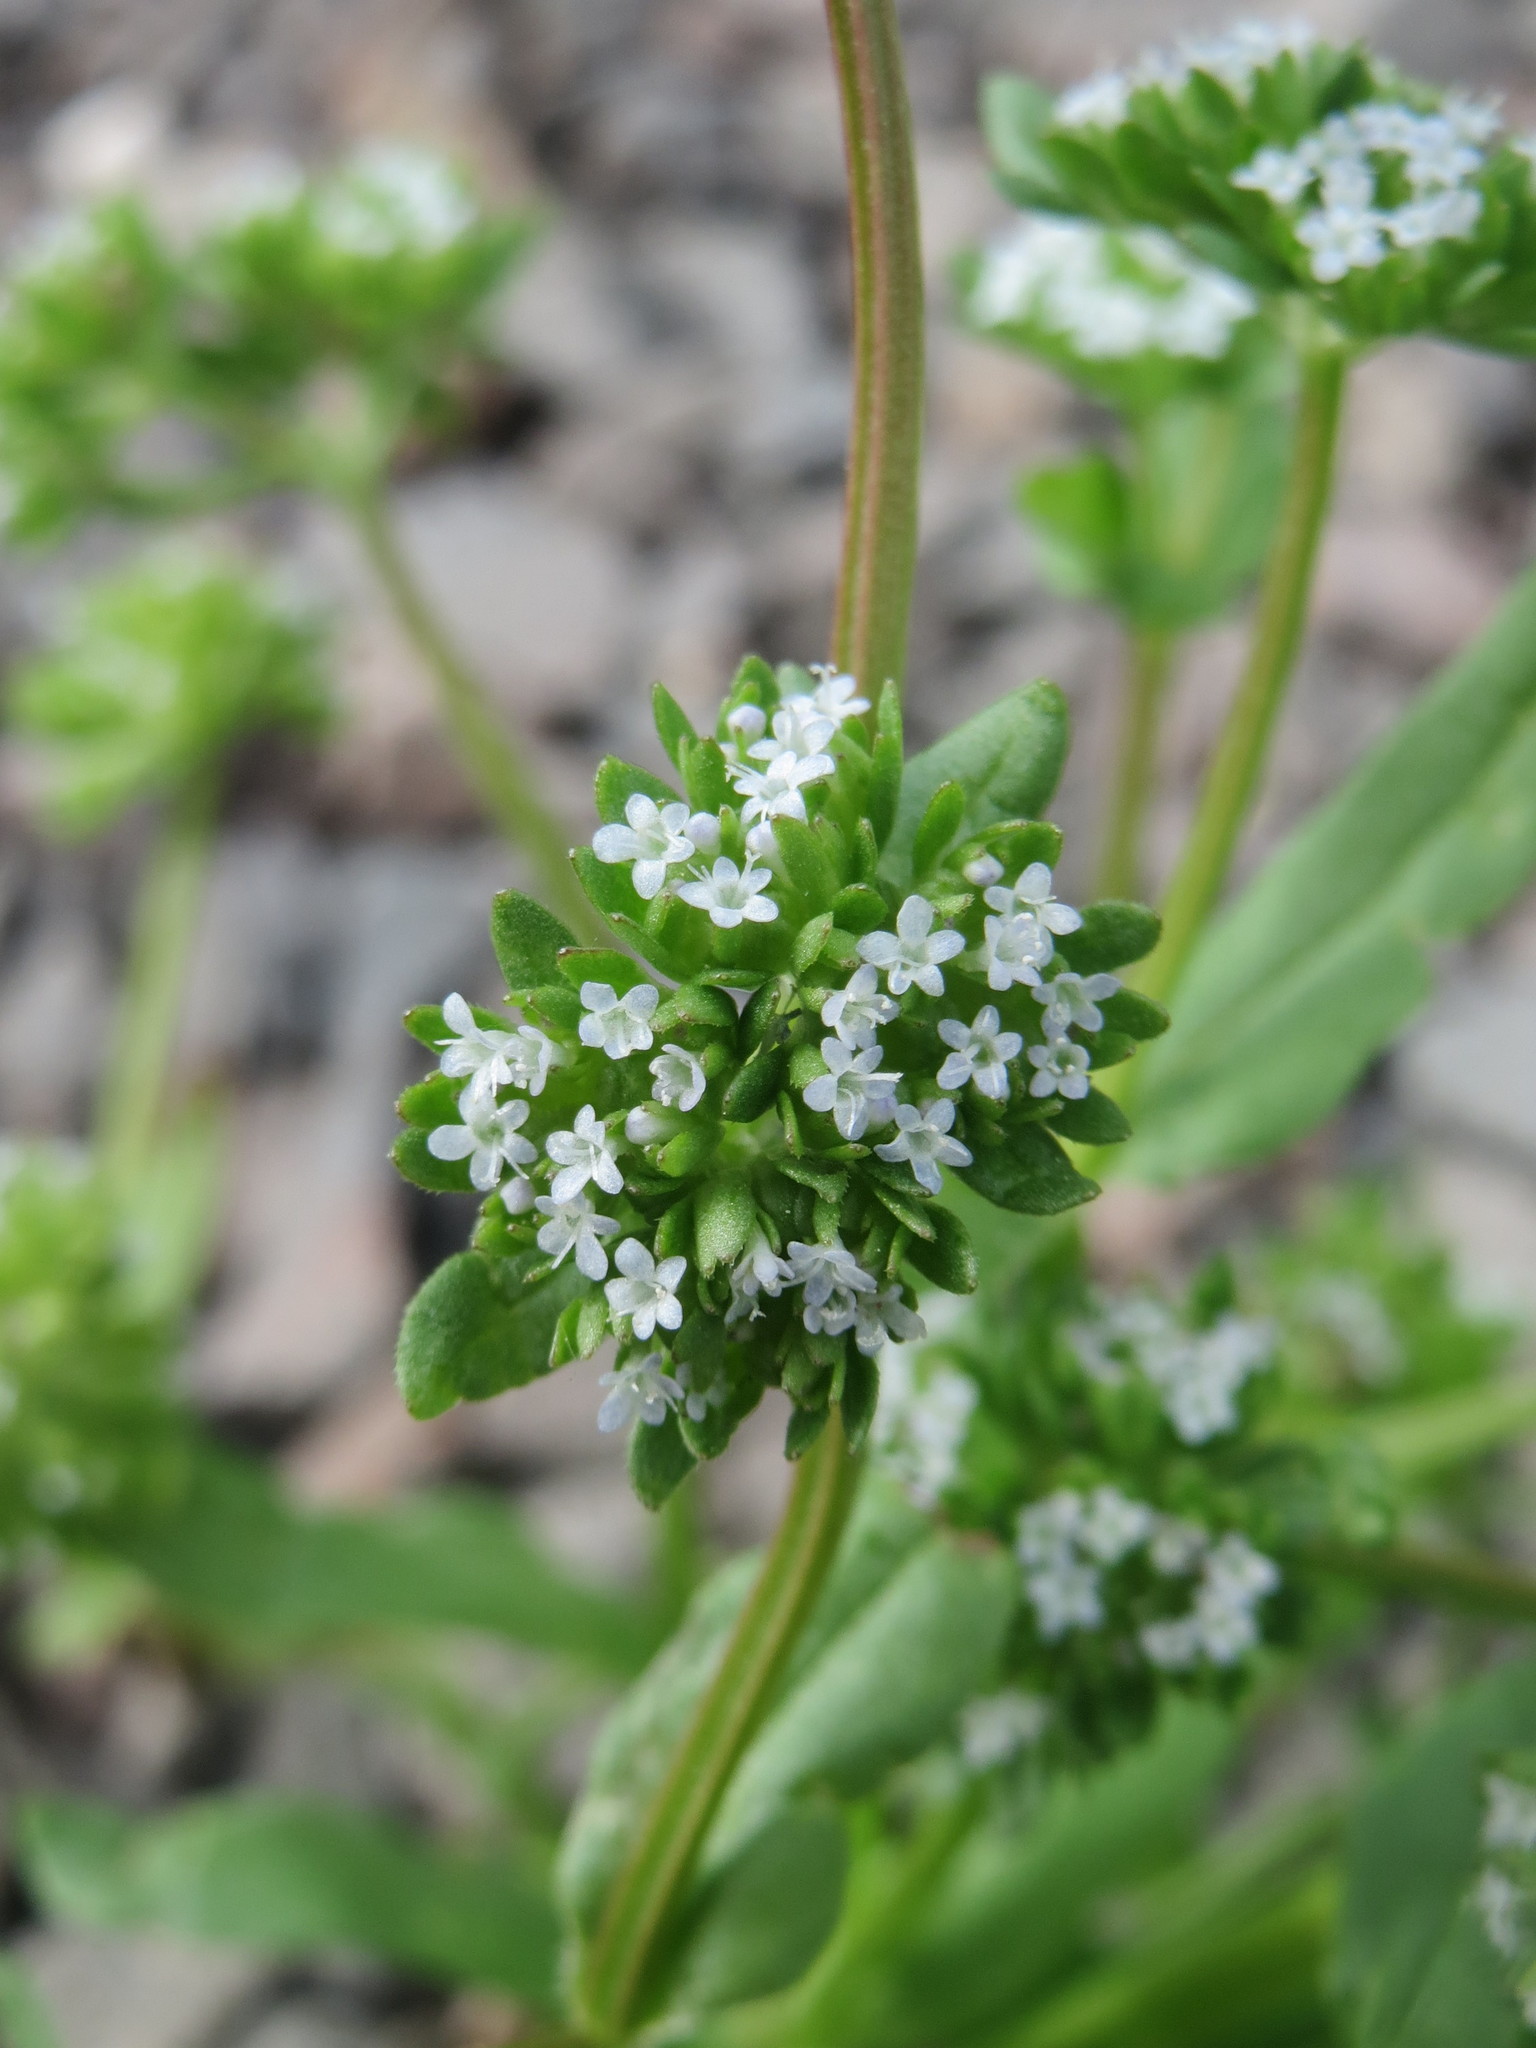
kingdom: Plantae
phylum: Tracheophyta
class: Magnoliopsida
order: Dipsacales
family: Caprifoliaceae
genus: Valerianella
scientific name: Valerianella locusta
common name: Common cornsalad
